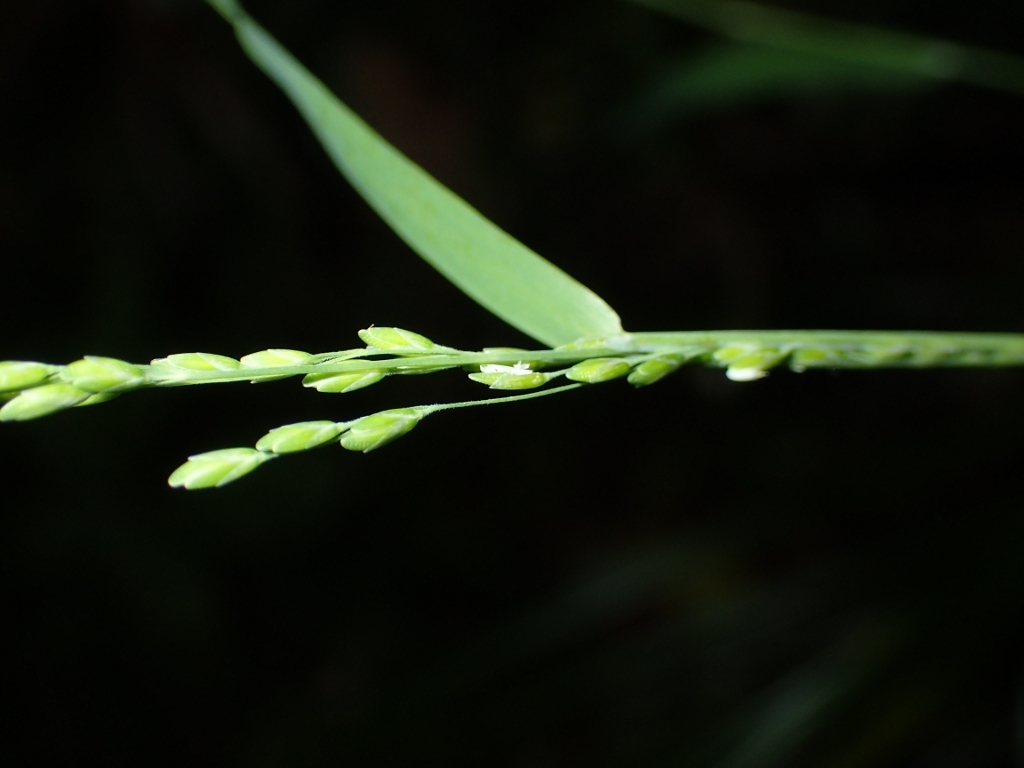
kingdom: Plantae
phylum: Tracheophyta
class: Liliopsida
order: Poales
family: Poaceae
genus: Ehrharta
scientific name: Ehrharta erecta
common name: Panic veldtgrass
